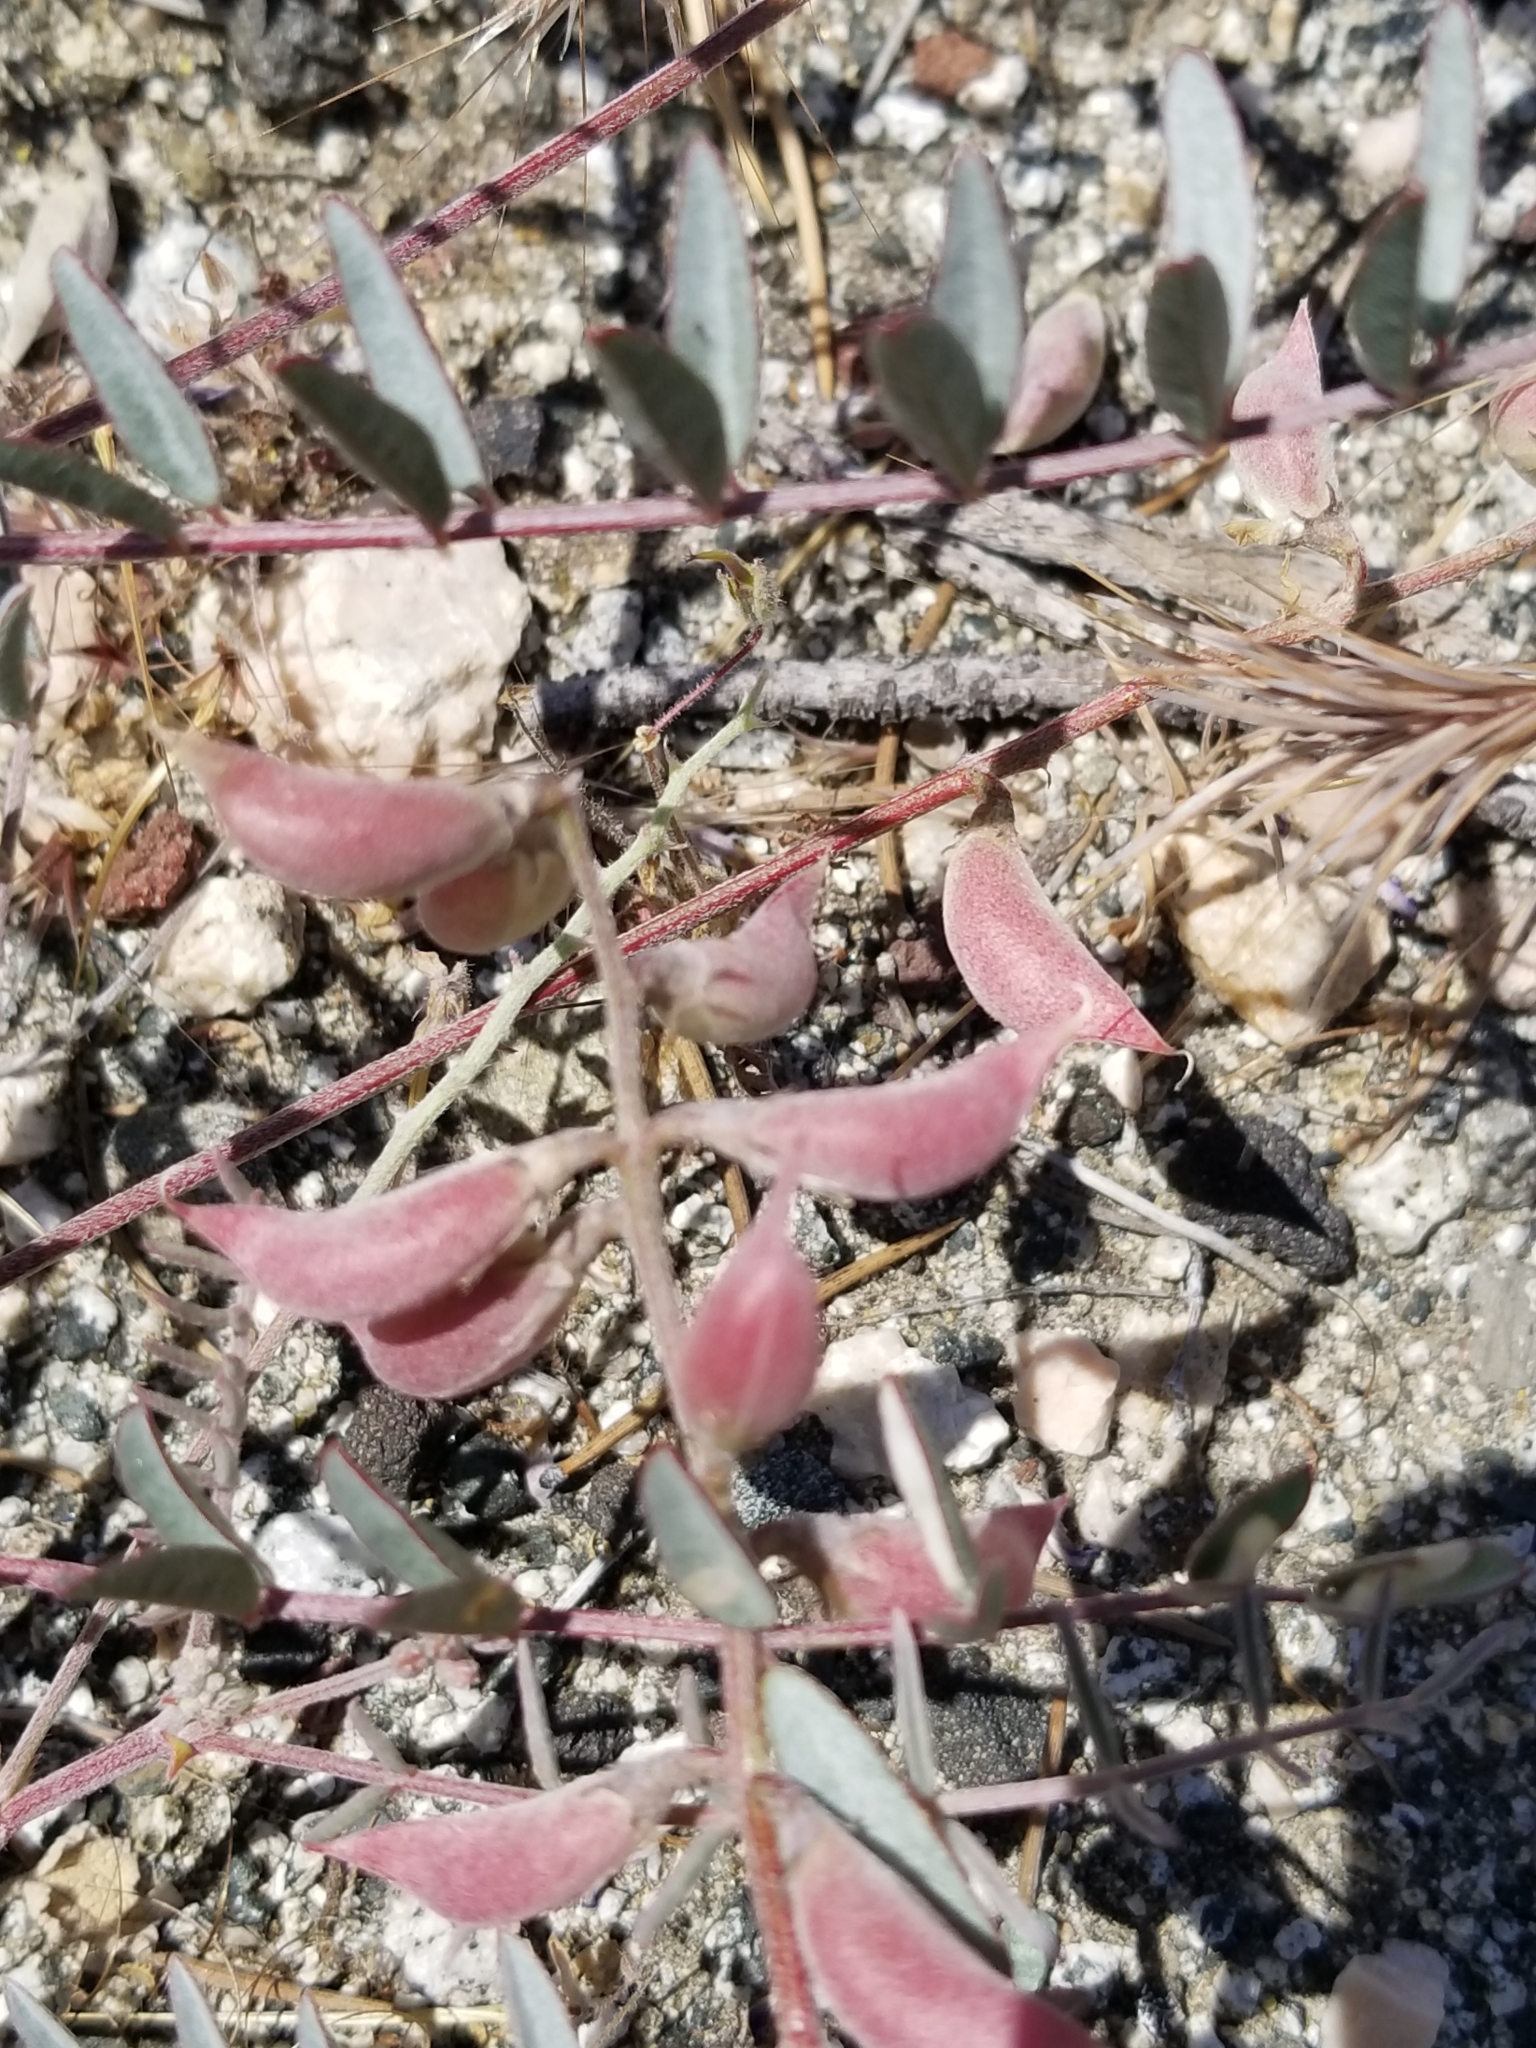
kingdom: Plantae
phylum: Tracheophyta
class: Magnoliopsida
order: Fabales
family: Fabaceae
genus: Astragalus
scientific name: Astragalus palmeri
